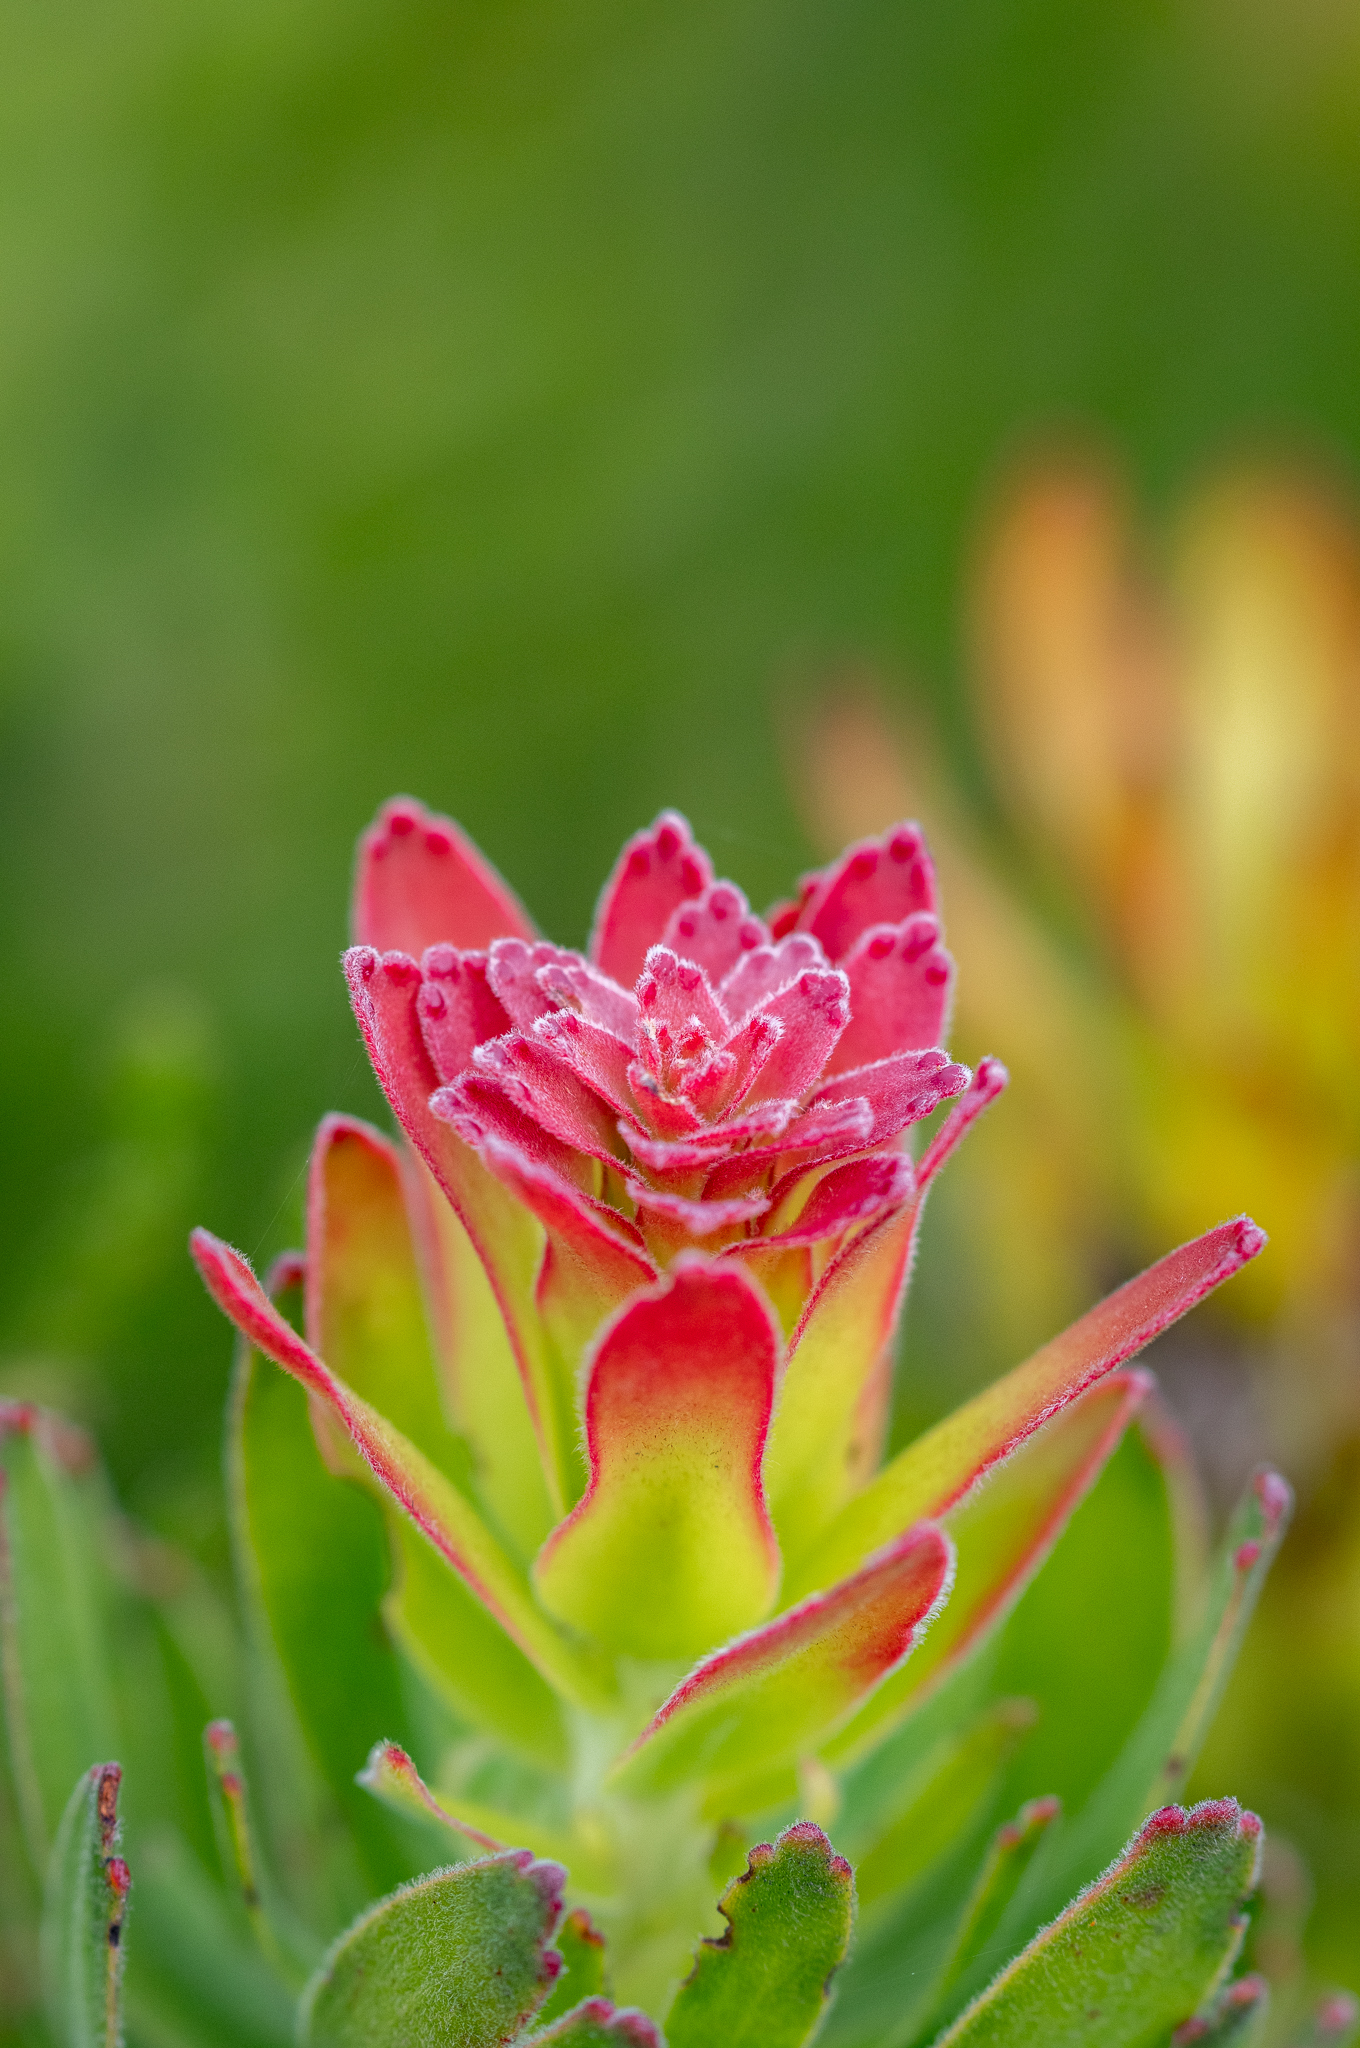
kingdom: Plantae
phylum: Tracheophyta
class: Magnoliopsida
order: Proteales
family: Proteaceae
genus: Mimetes
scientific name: Mimetes cucullatus
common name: Common pagoda
